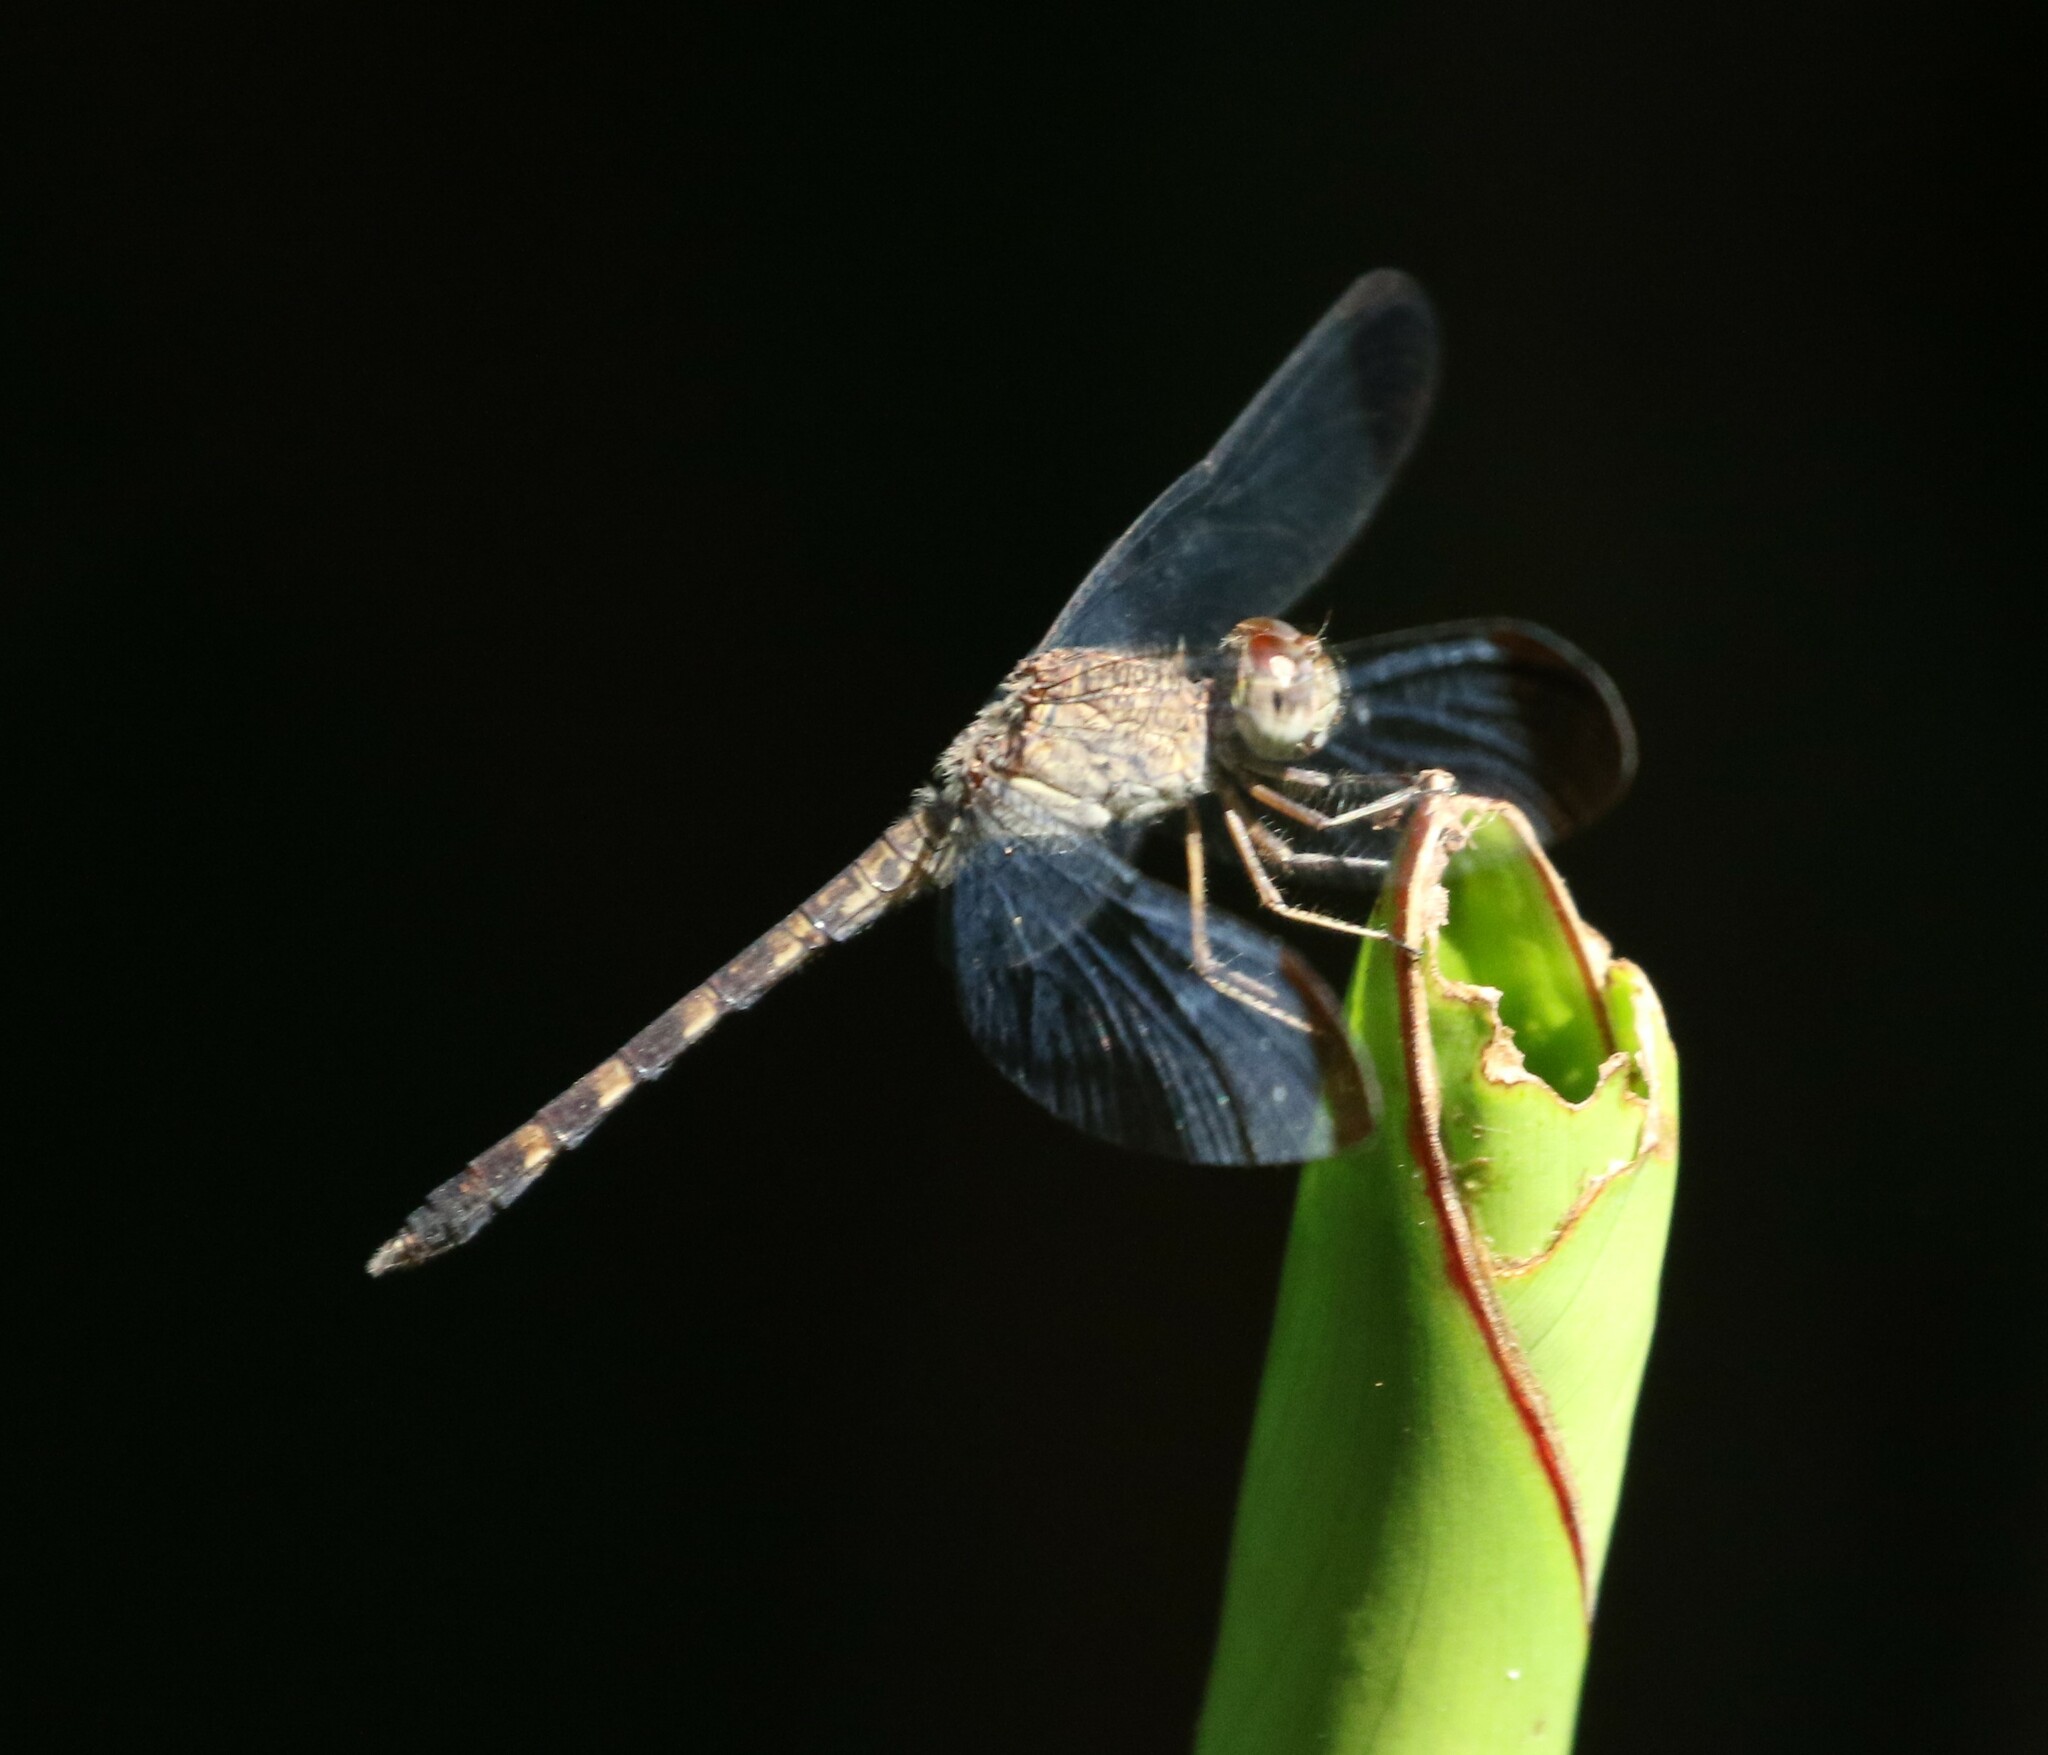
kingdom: Animalia
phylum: Arthropoda
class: Insecta
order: Odonata
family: Libellulidae
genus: Uracis
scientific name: Uracis imbuta
